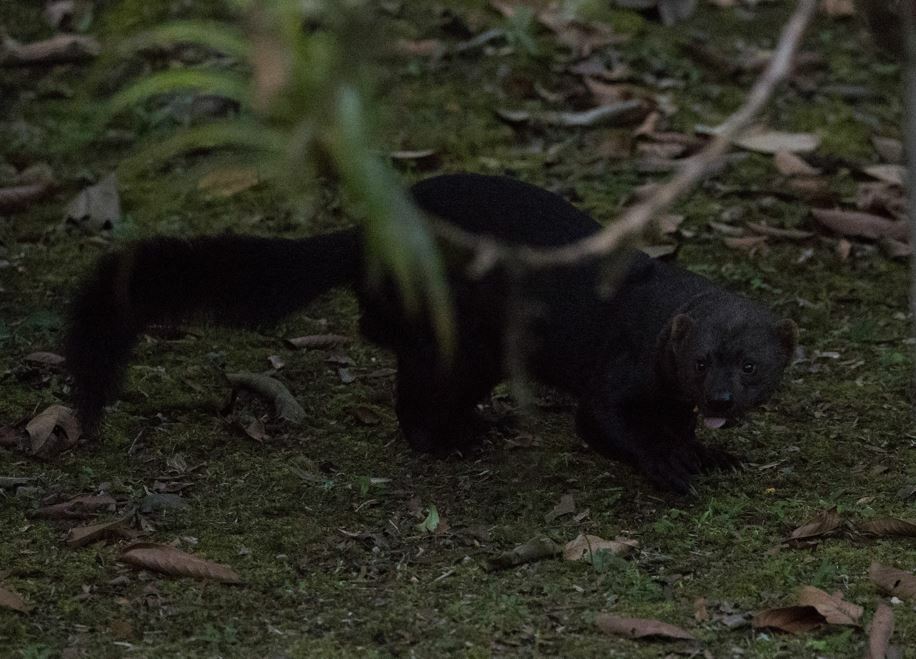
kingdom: Animalia
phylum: Chordata
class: Mammalia
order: Carnivora
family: Mustelidae
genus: Eira
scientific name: Eira barbara
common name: Tayra
